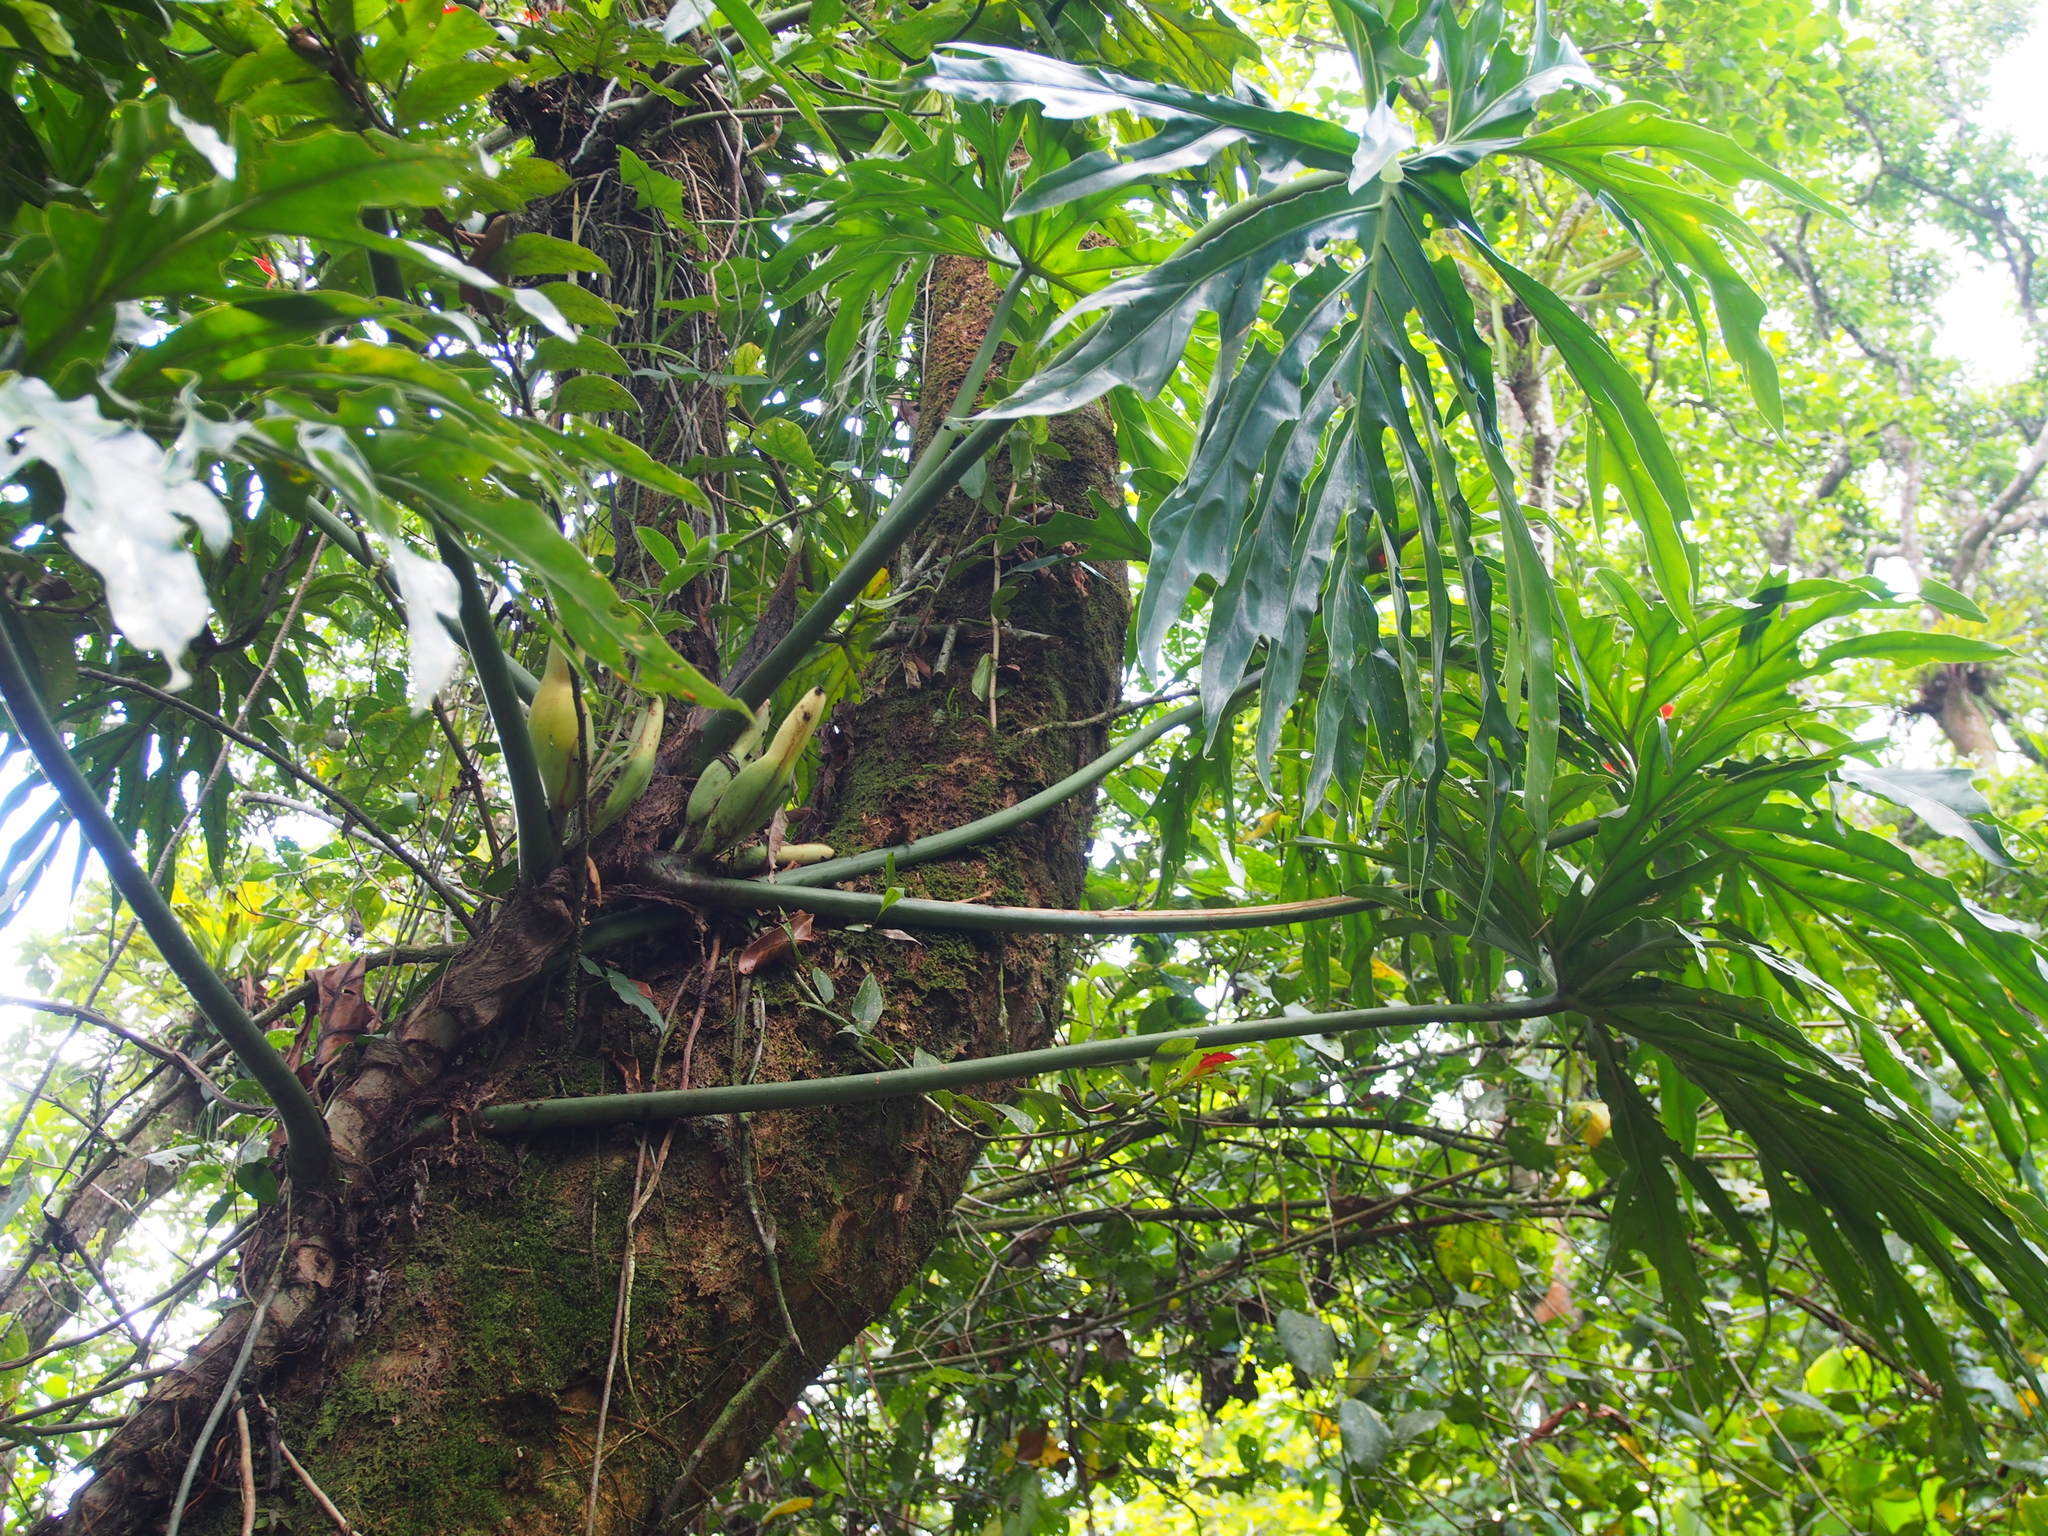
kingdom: Plantae
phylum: Tracheophyta
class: Liliopsida
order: Alismatales
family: Araceae
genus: Philodendron
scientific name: Philodendron radiatum
